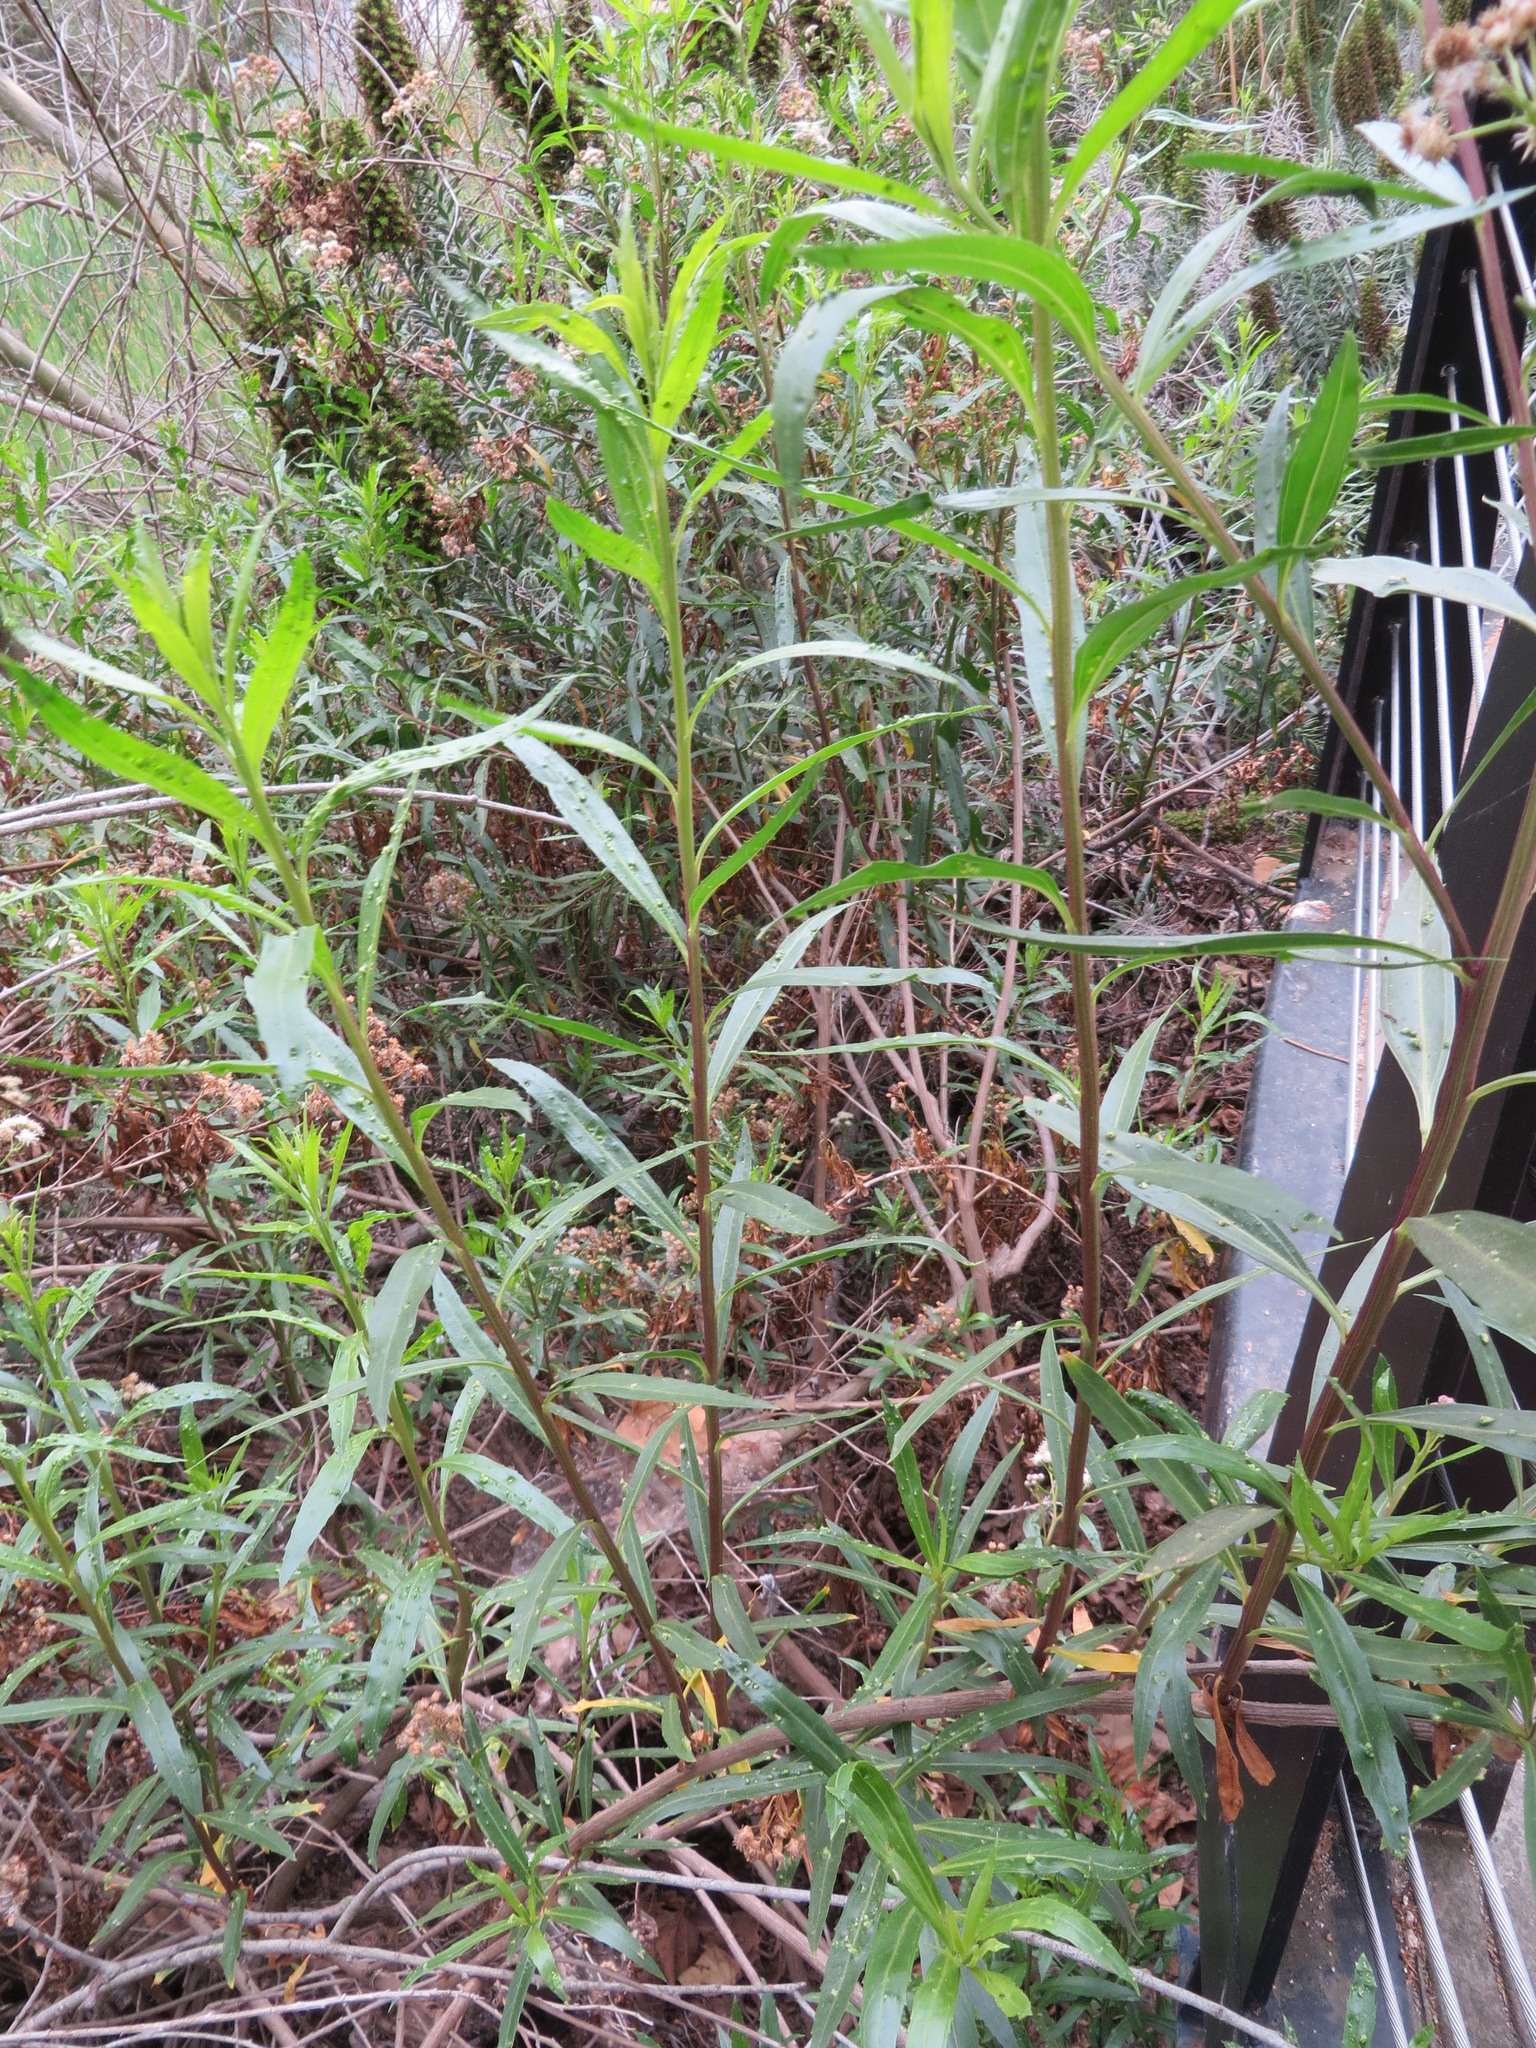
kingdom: Plantae
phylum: Tracheophyta
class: Magnoliopsida
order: Asterales
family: Asteraceae
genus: Baccharis
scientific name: Baccharis salicifolia
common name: Sticky baccharis
